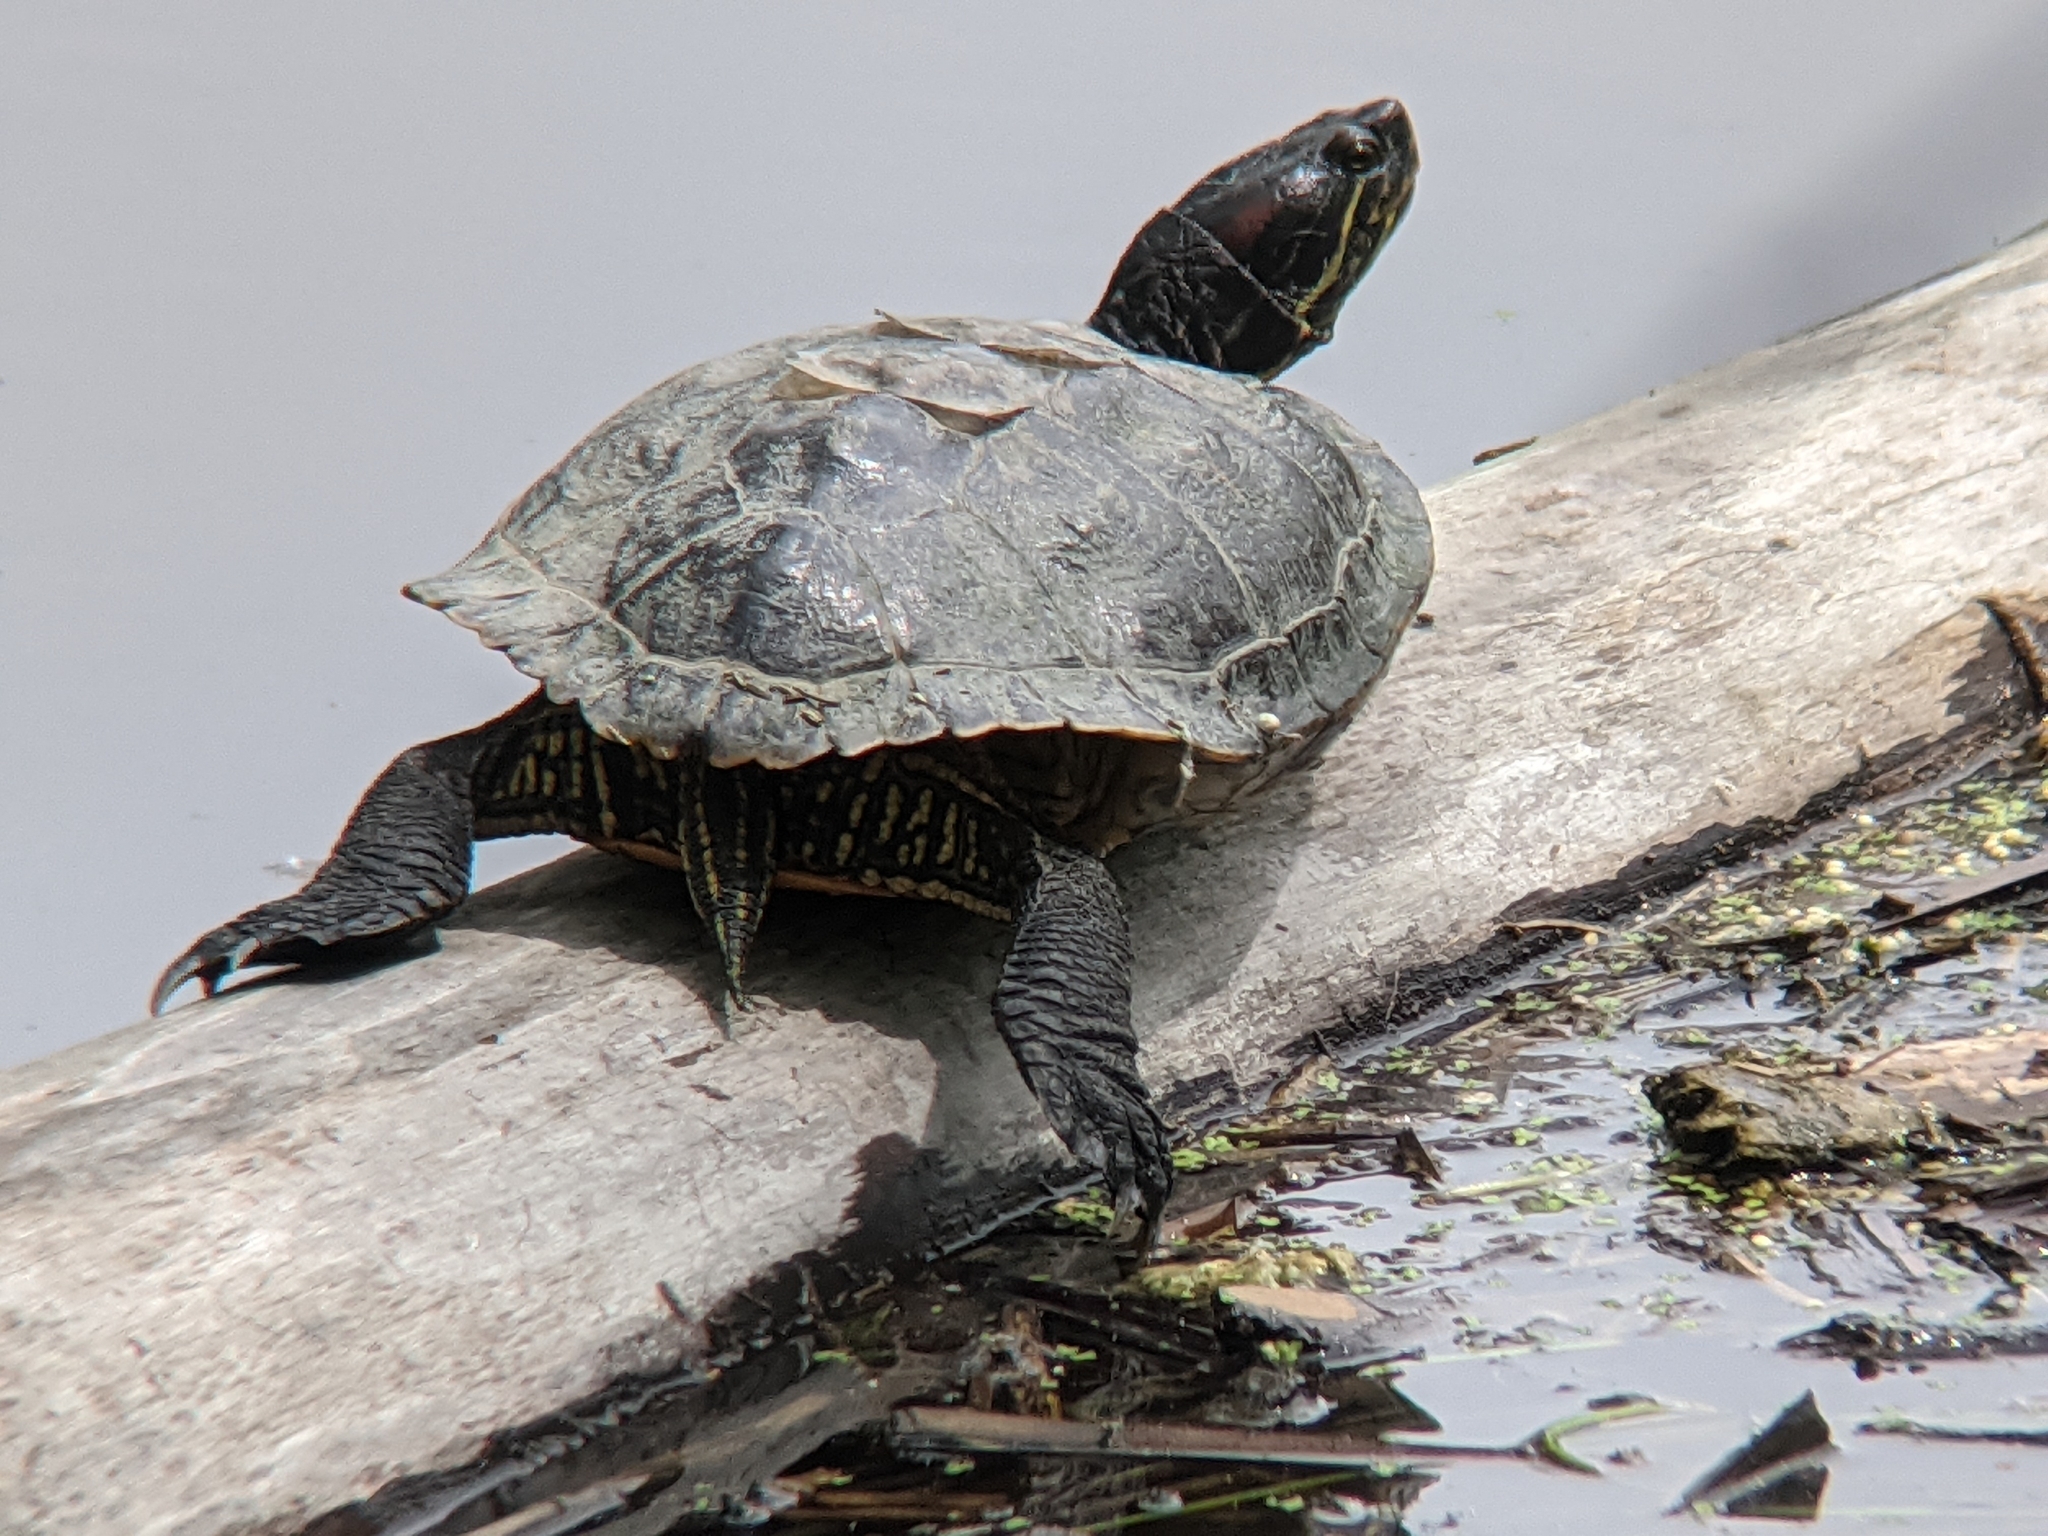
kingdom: Animalia
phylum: Chordata
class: Testudines
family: Emydidae
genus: Trachemys
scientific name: Trachemys scripta
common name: Slider
